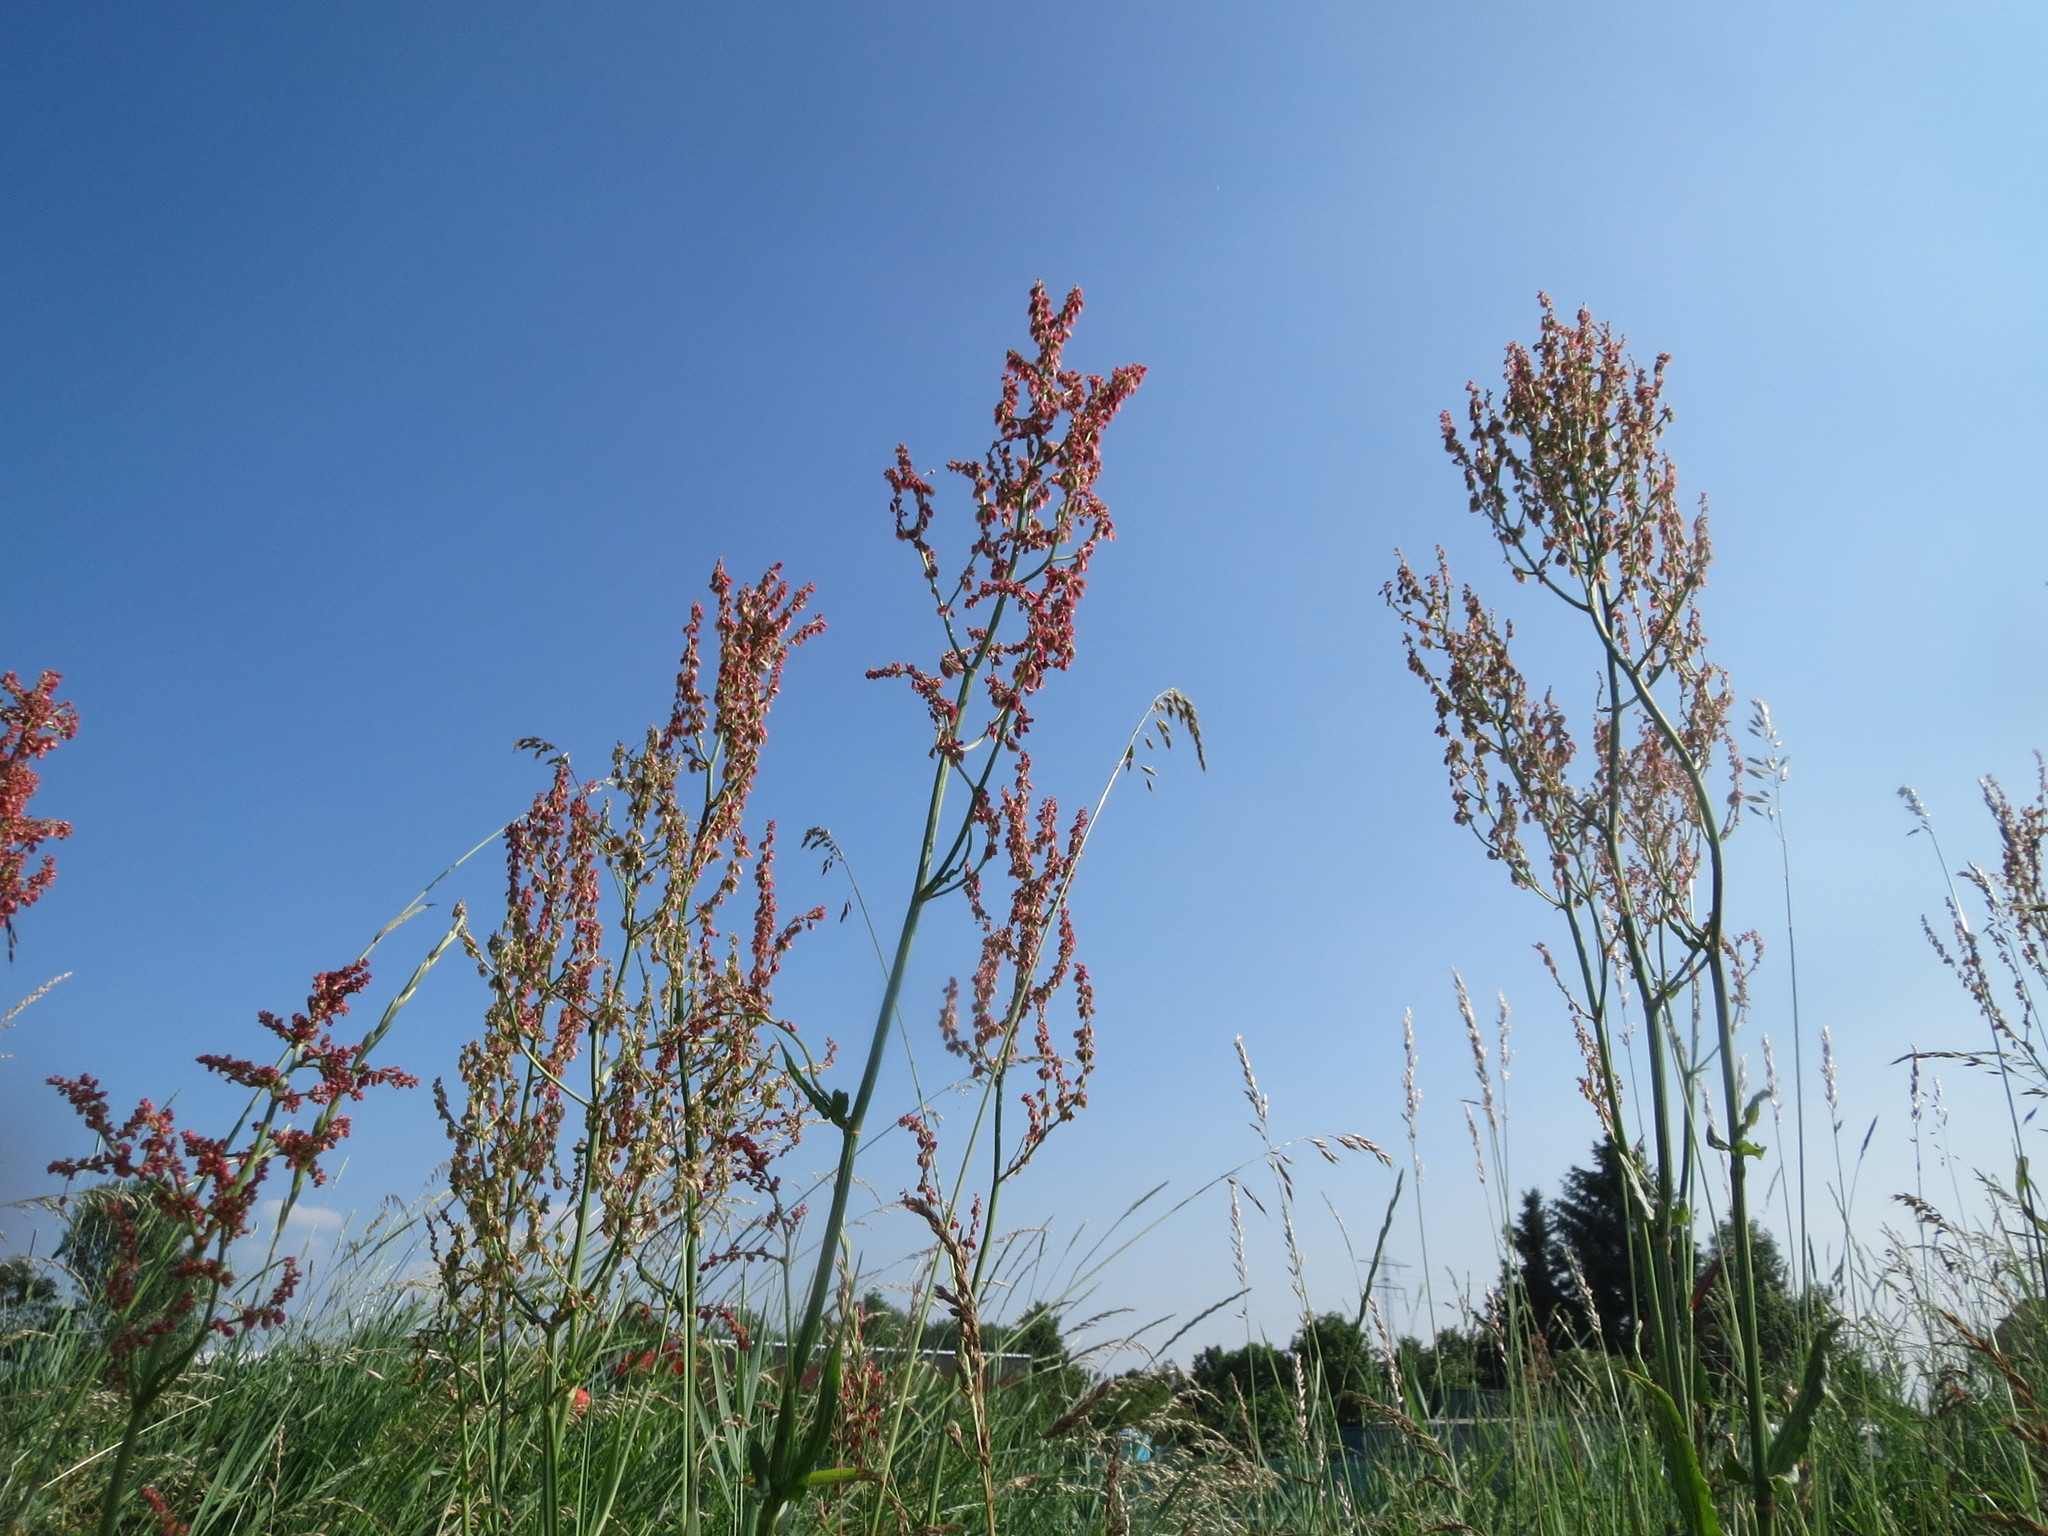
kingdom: Plantae
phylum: Tracheophyta
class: Magnoliopsida
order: Caryophyllales
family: Polygonaceae
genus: Rumex
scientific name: Rumex thyrsiflorus
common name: Garden sorrel
